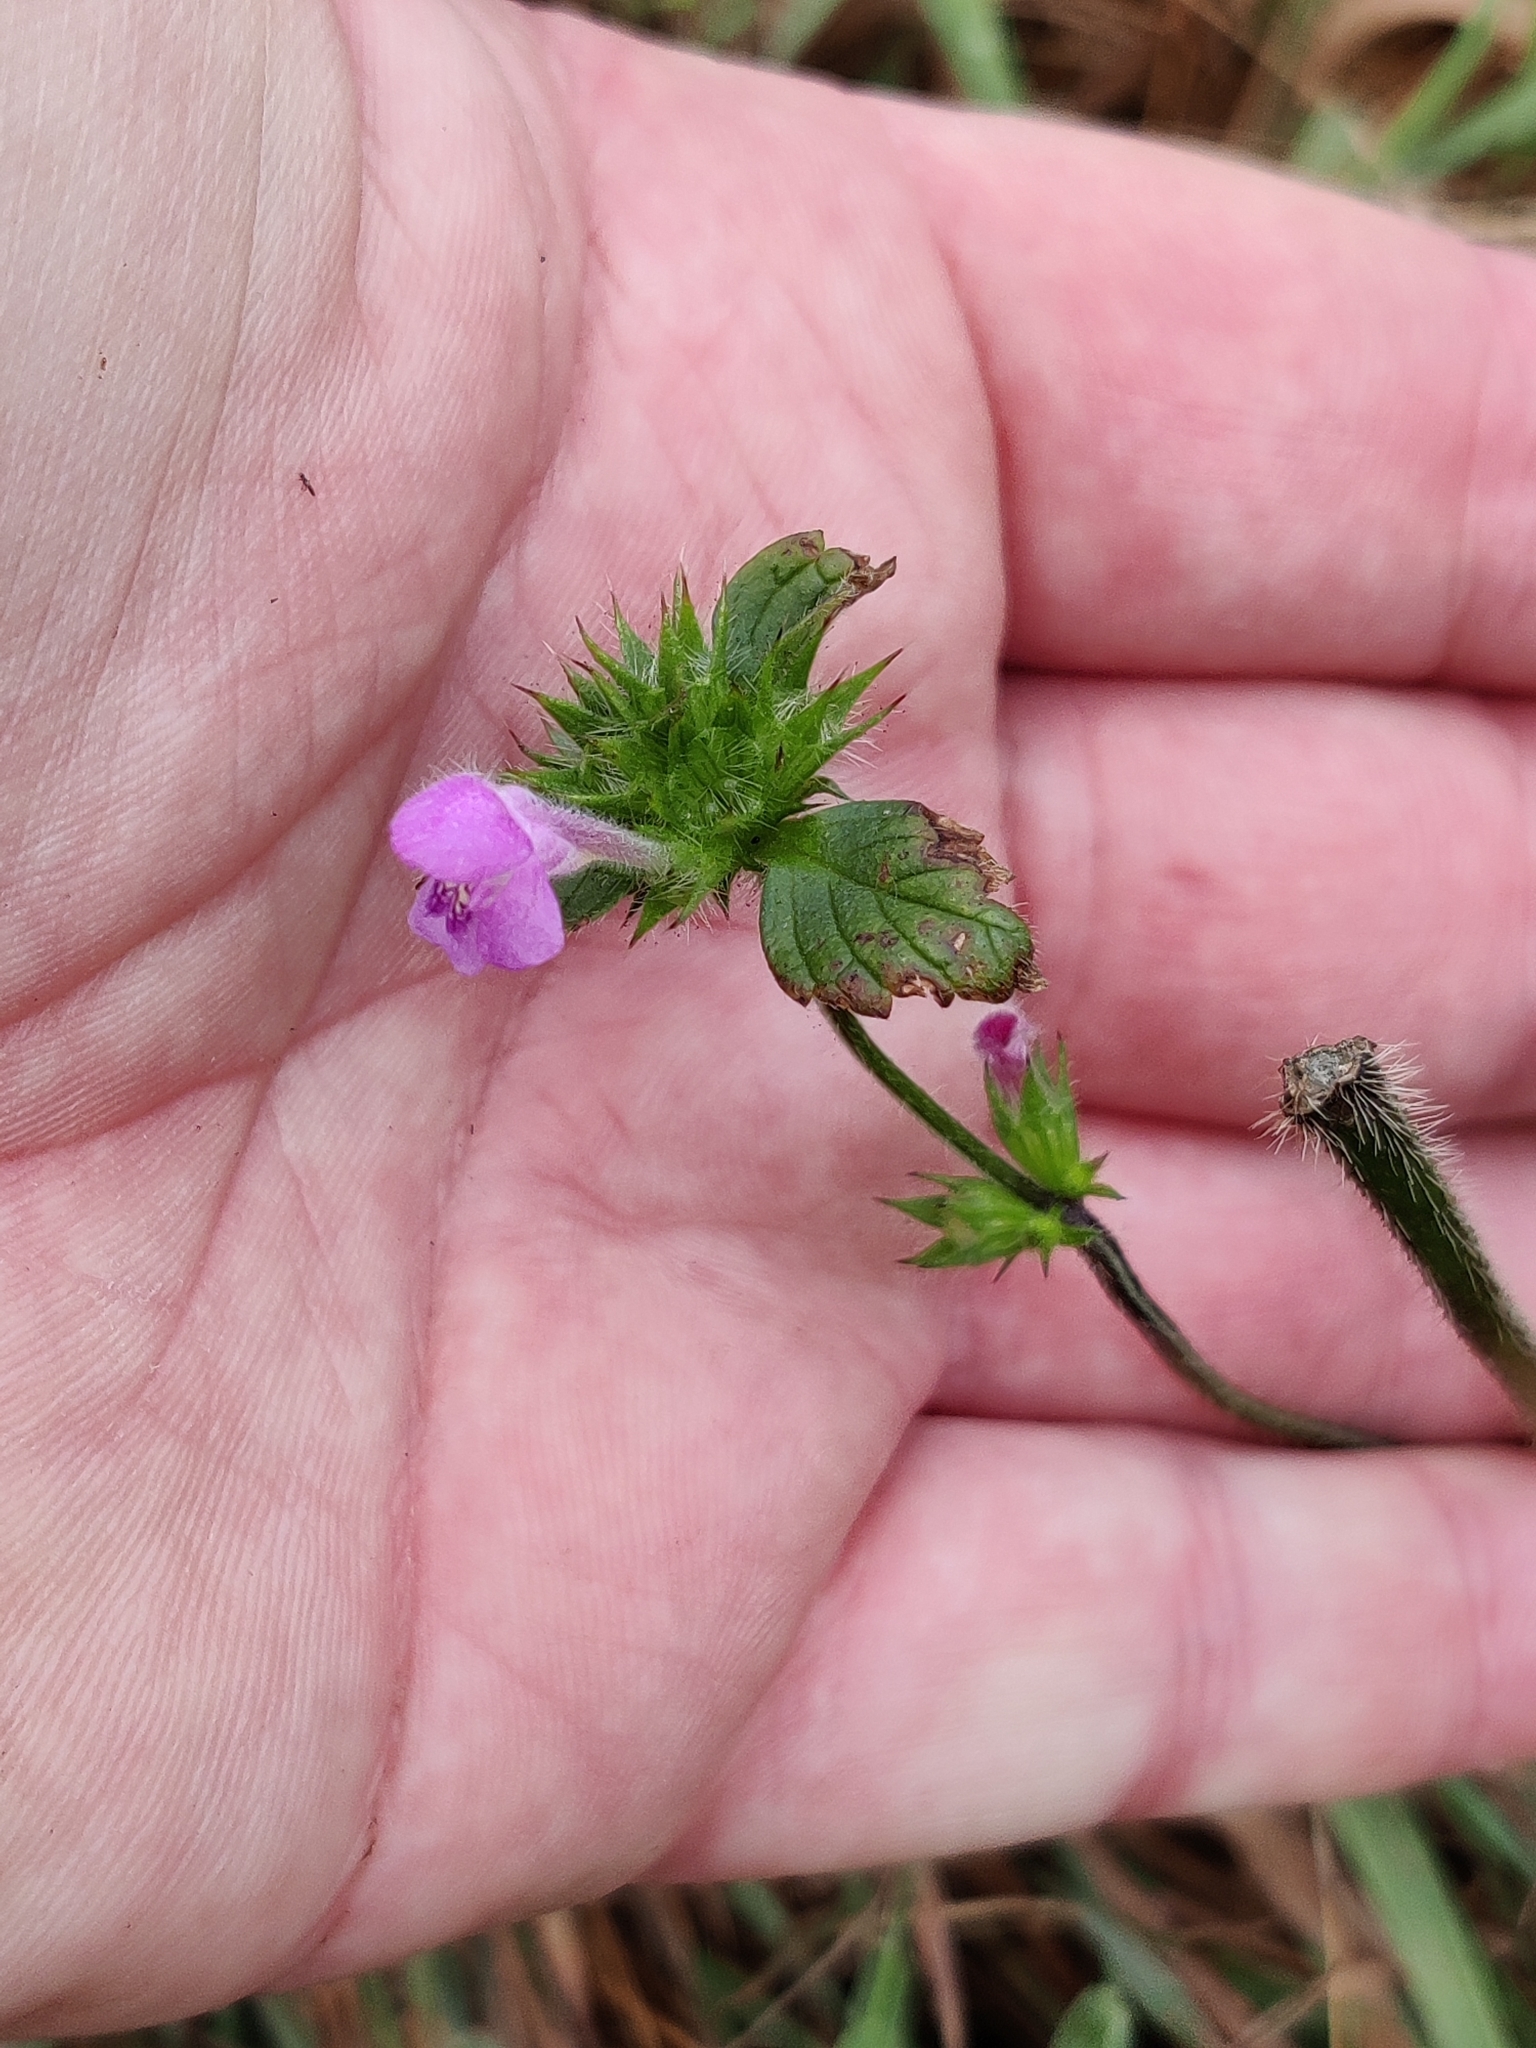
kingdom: Plantae
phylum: Tracheophyta
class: Magnoliopsida
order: Lamiales
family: Lamiaceae
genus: Galeopsis
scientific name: Galeopsis tetrahit
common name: Common hemp-nettle
